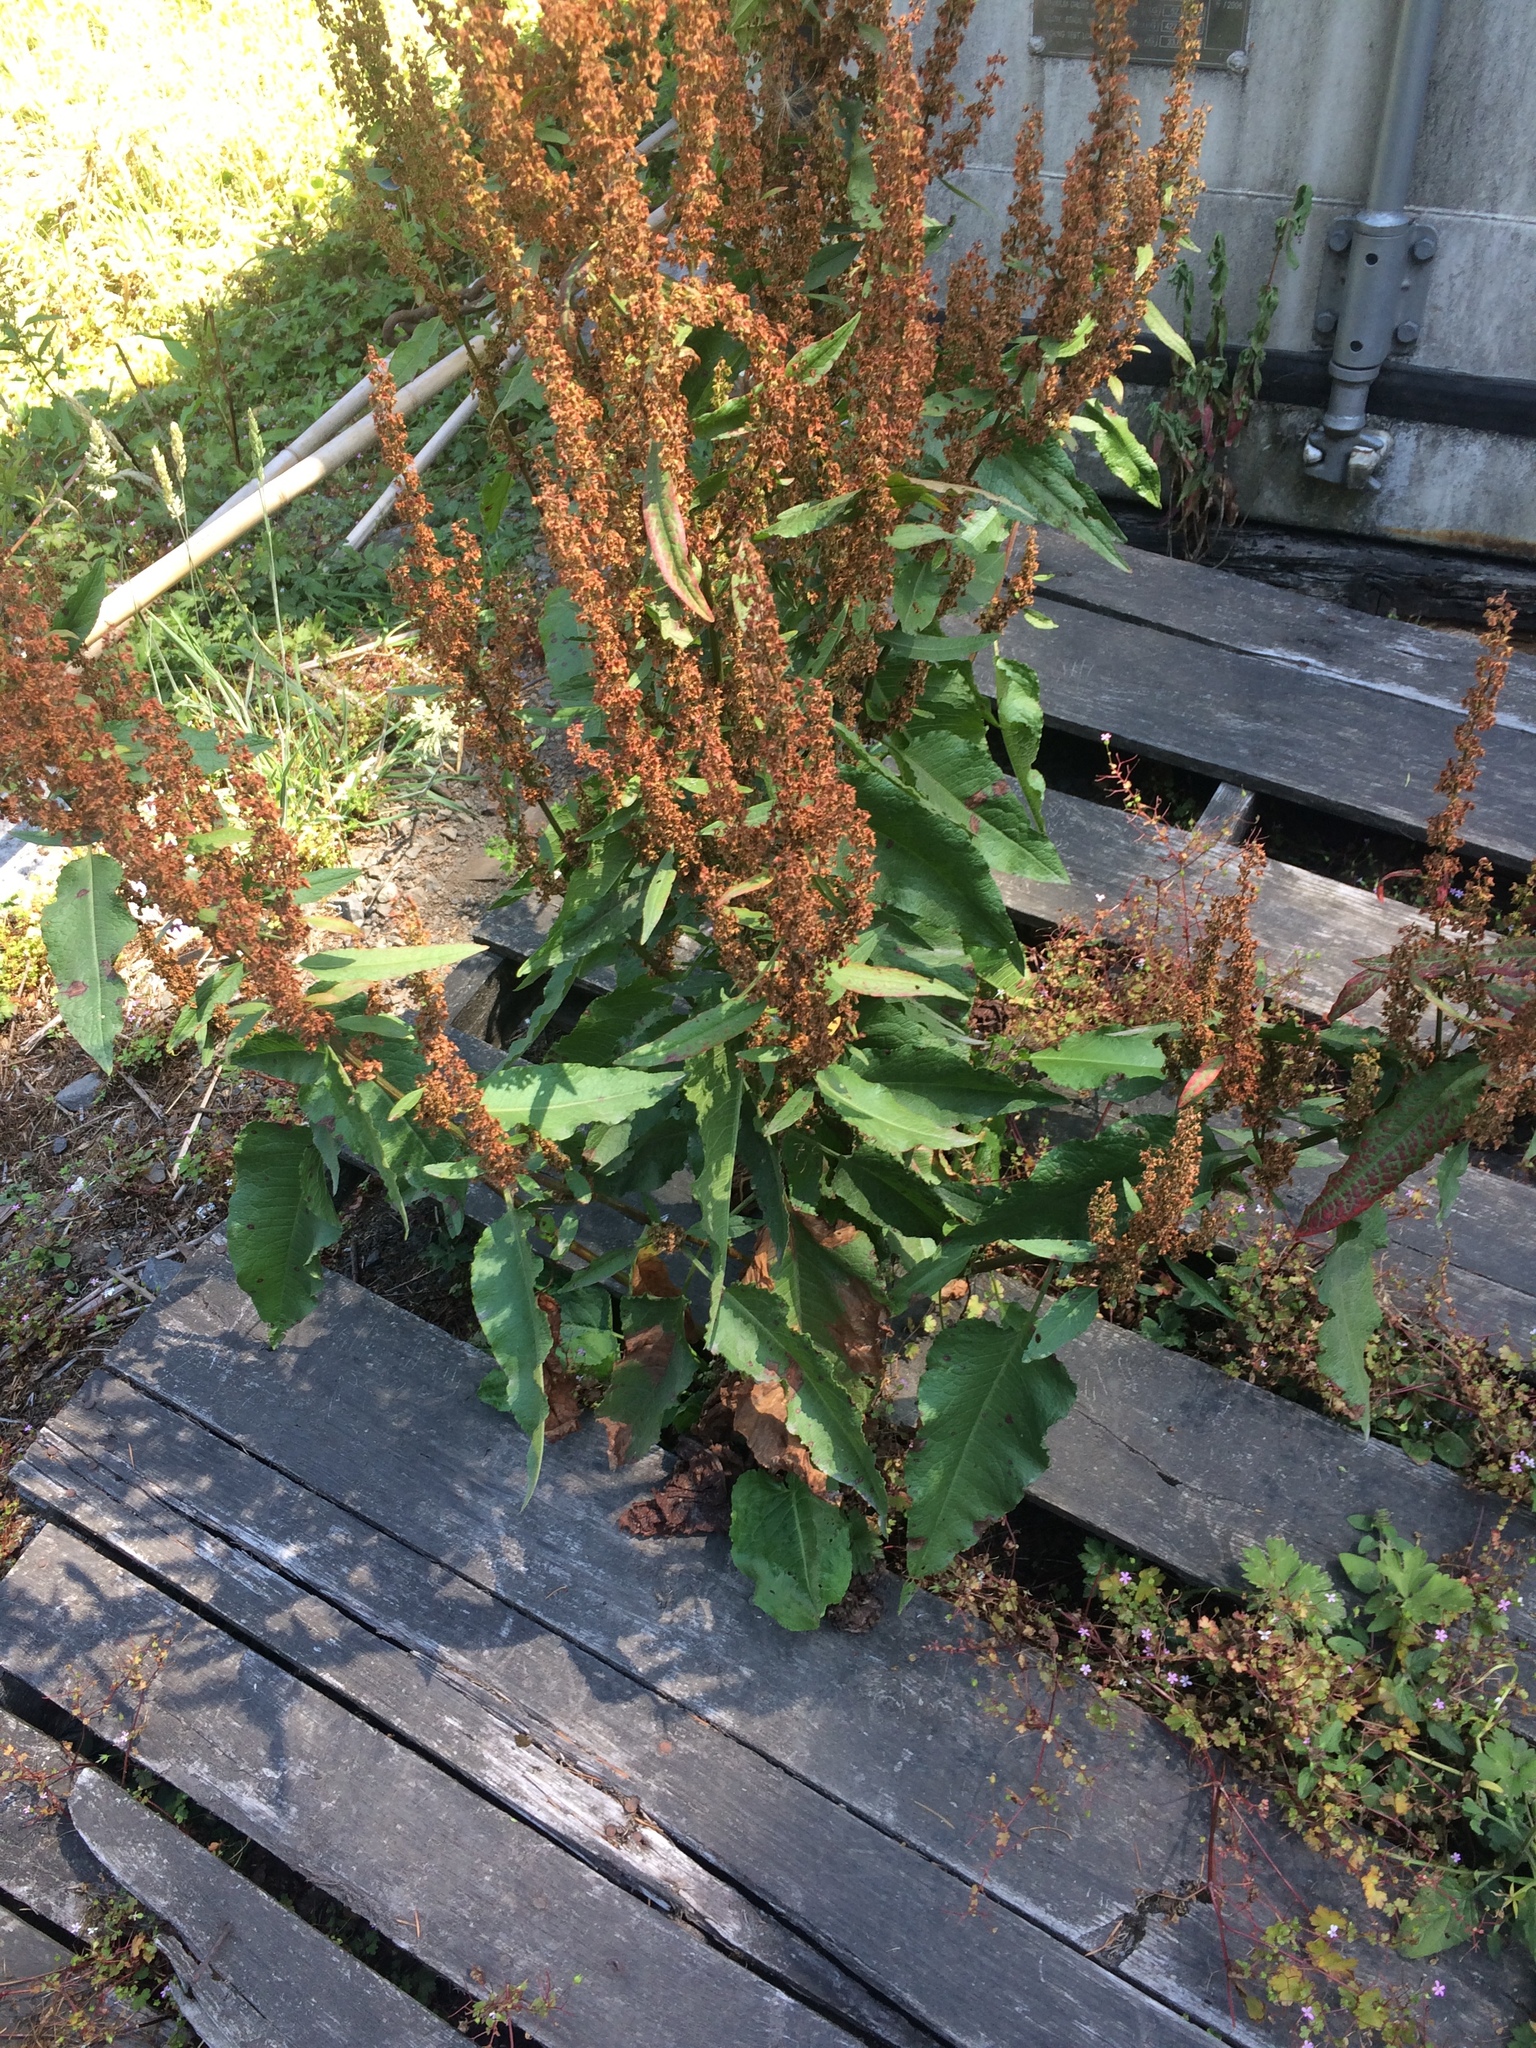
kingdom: Plantae
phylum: Tracheophyta
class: Magnoliopsida
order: Caryophyllales
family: Polygonaceae
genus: Rumex
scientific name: Rumex crispus
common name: Curled dock
